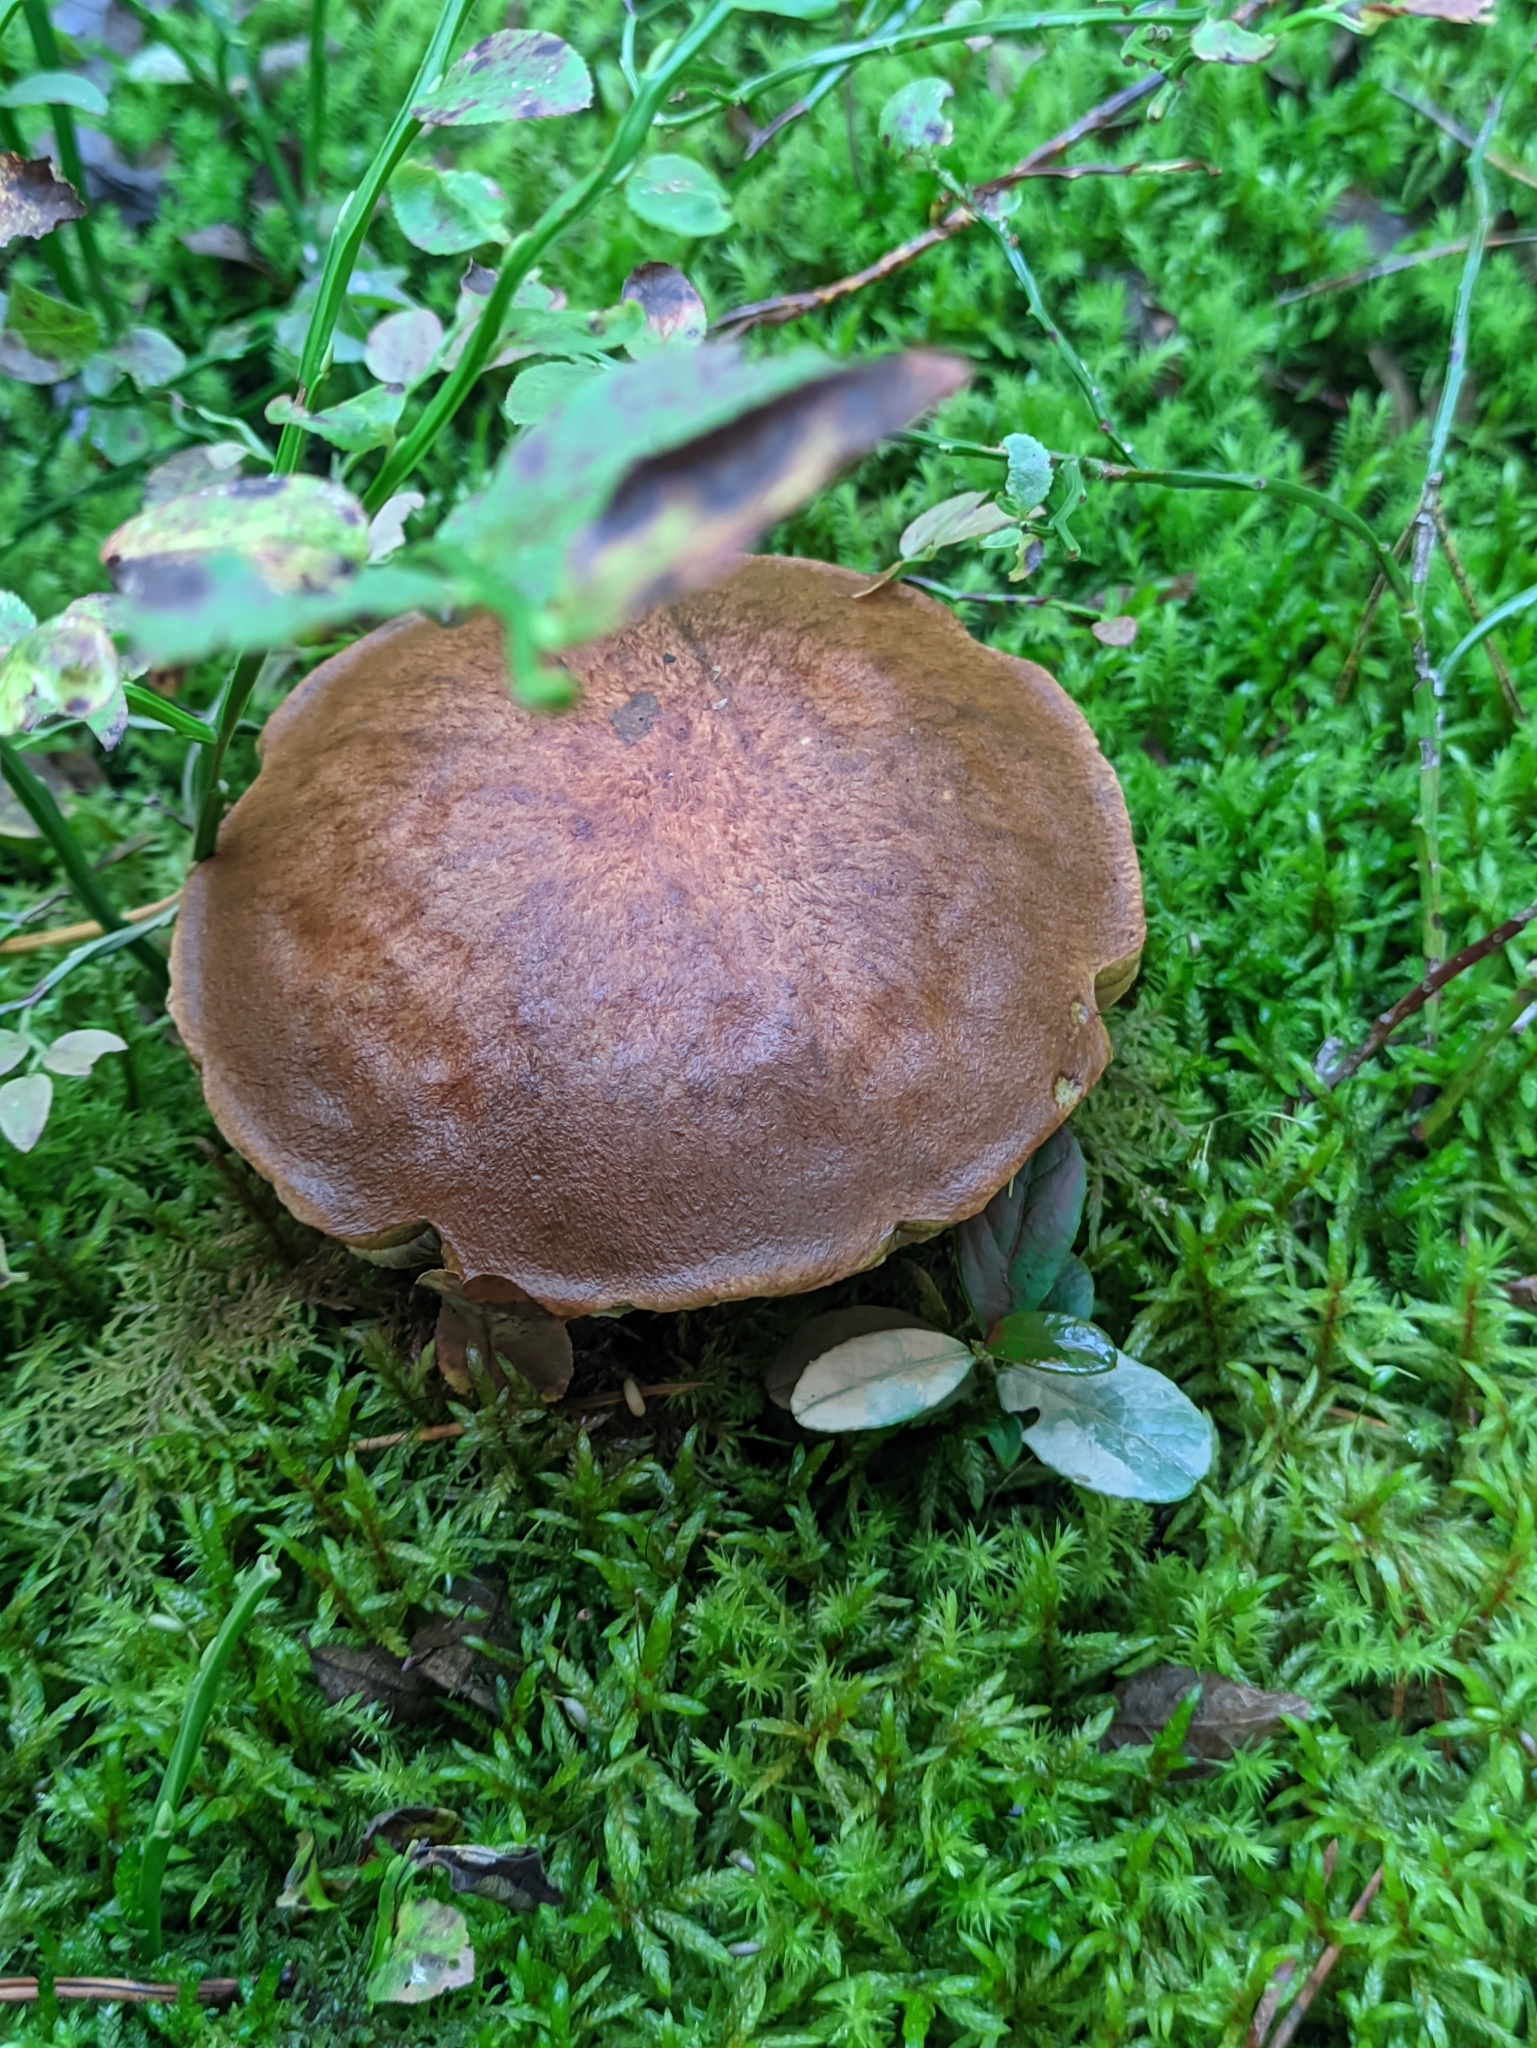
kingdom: Fungi
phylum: Basidiomycota
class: Agaricomycetes
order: Boletales
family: Boletaceae
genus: Leccinum
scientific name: Leccinum scabrum
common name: Blushing bolete
